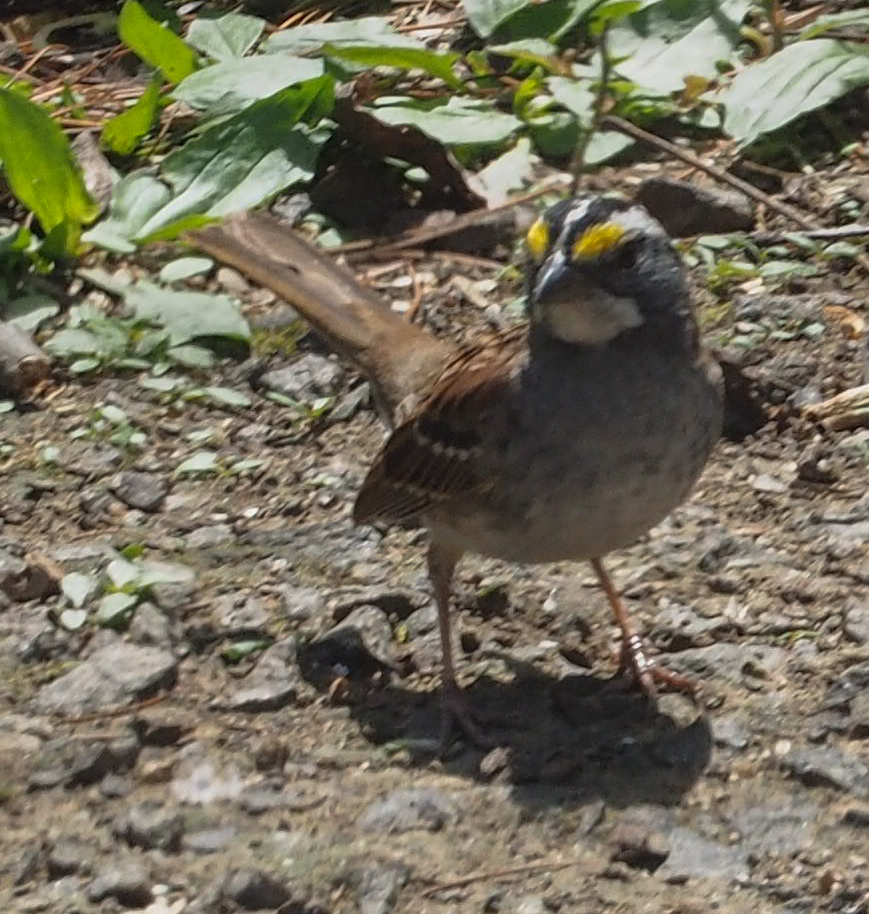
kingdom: Animalia
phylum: Chordata
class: Aves
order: Passeriformes
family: Passerellidae
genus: Zonotrichia
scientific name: Zonotrichia albicollis
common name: White-throated sparrow
